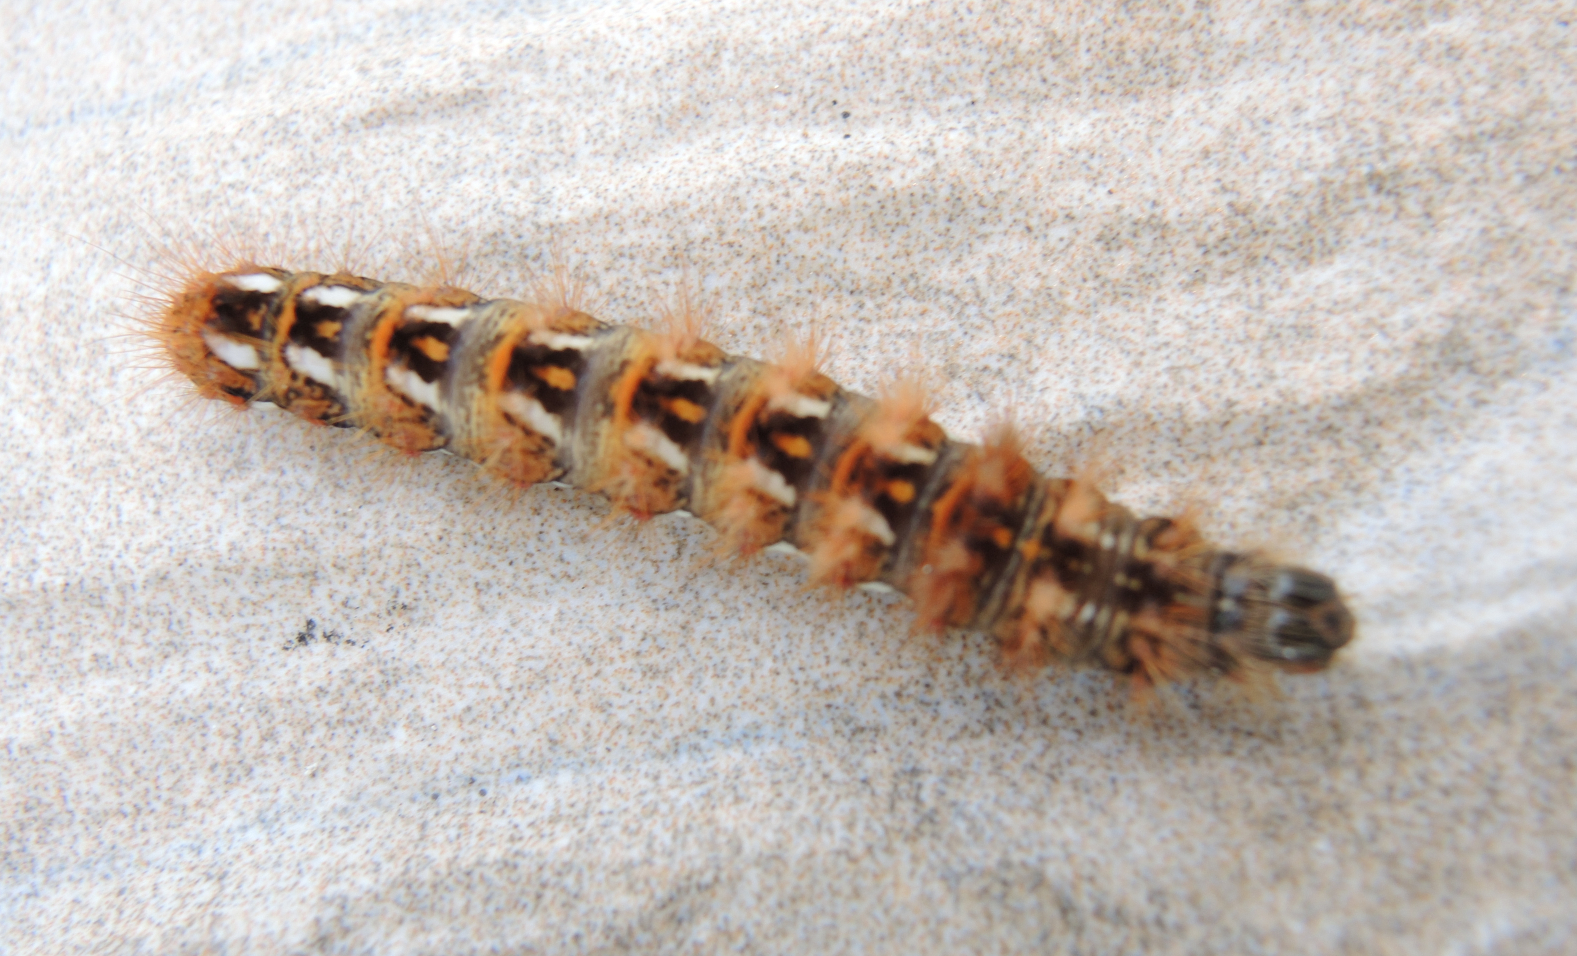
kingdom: Animalia
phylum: Arthropoda
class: Insecta
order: Lepidoptera
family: Noctuidae
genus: Acronicta
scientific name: Acronicta rumicis
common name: Knot grass
